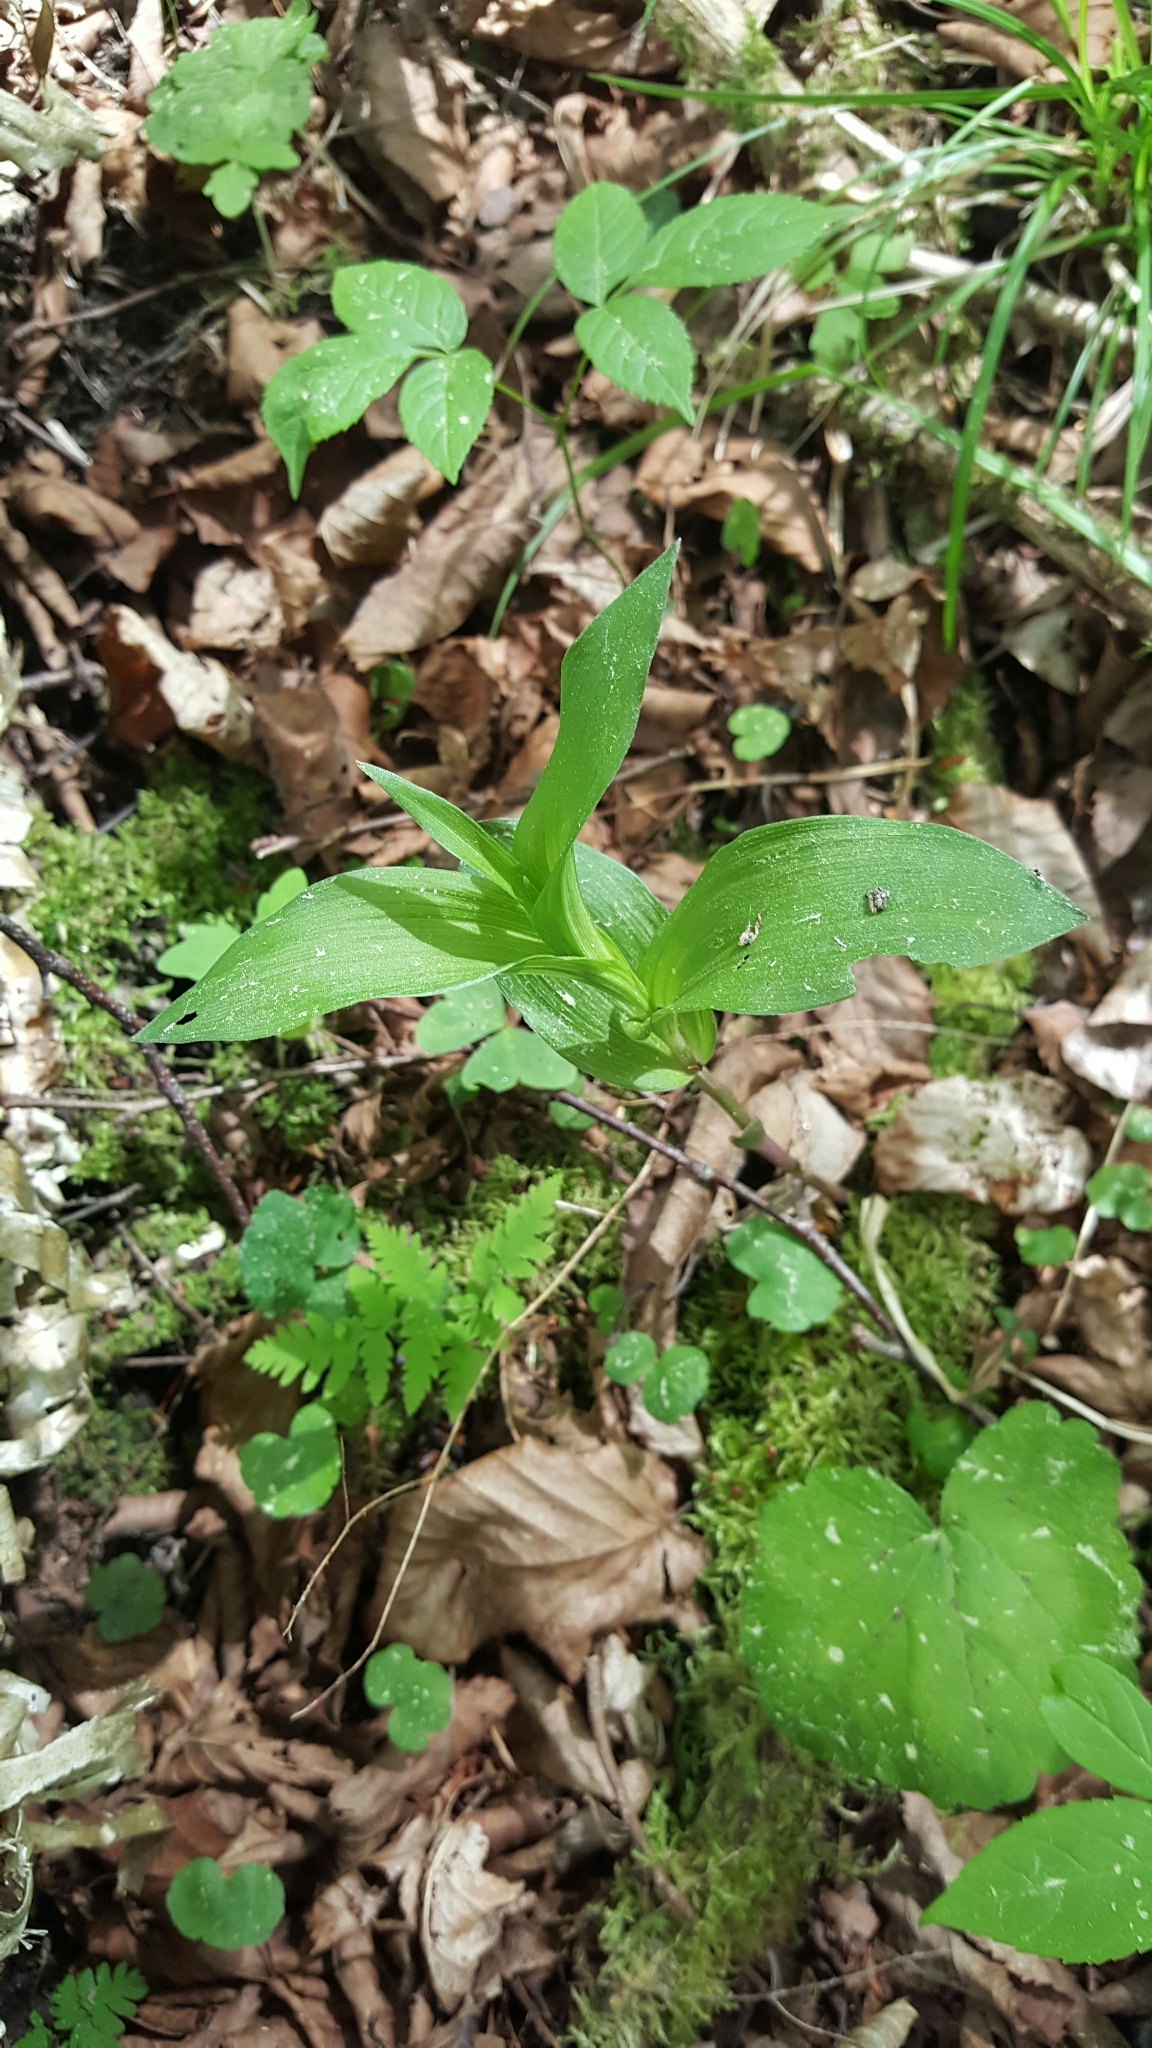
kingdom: Plantae
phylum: Tracheophyta
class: Liliopsida
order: Asparagales
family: Orchidaceae
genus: Epipactis
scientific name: Epipactis helleborine
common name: Broad-leaved helleborine
